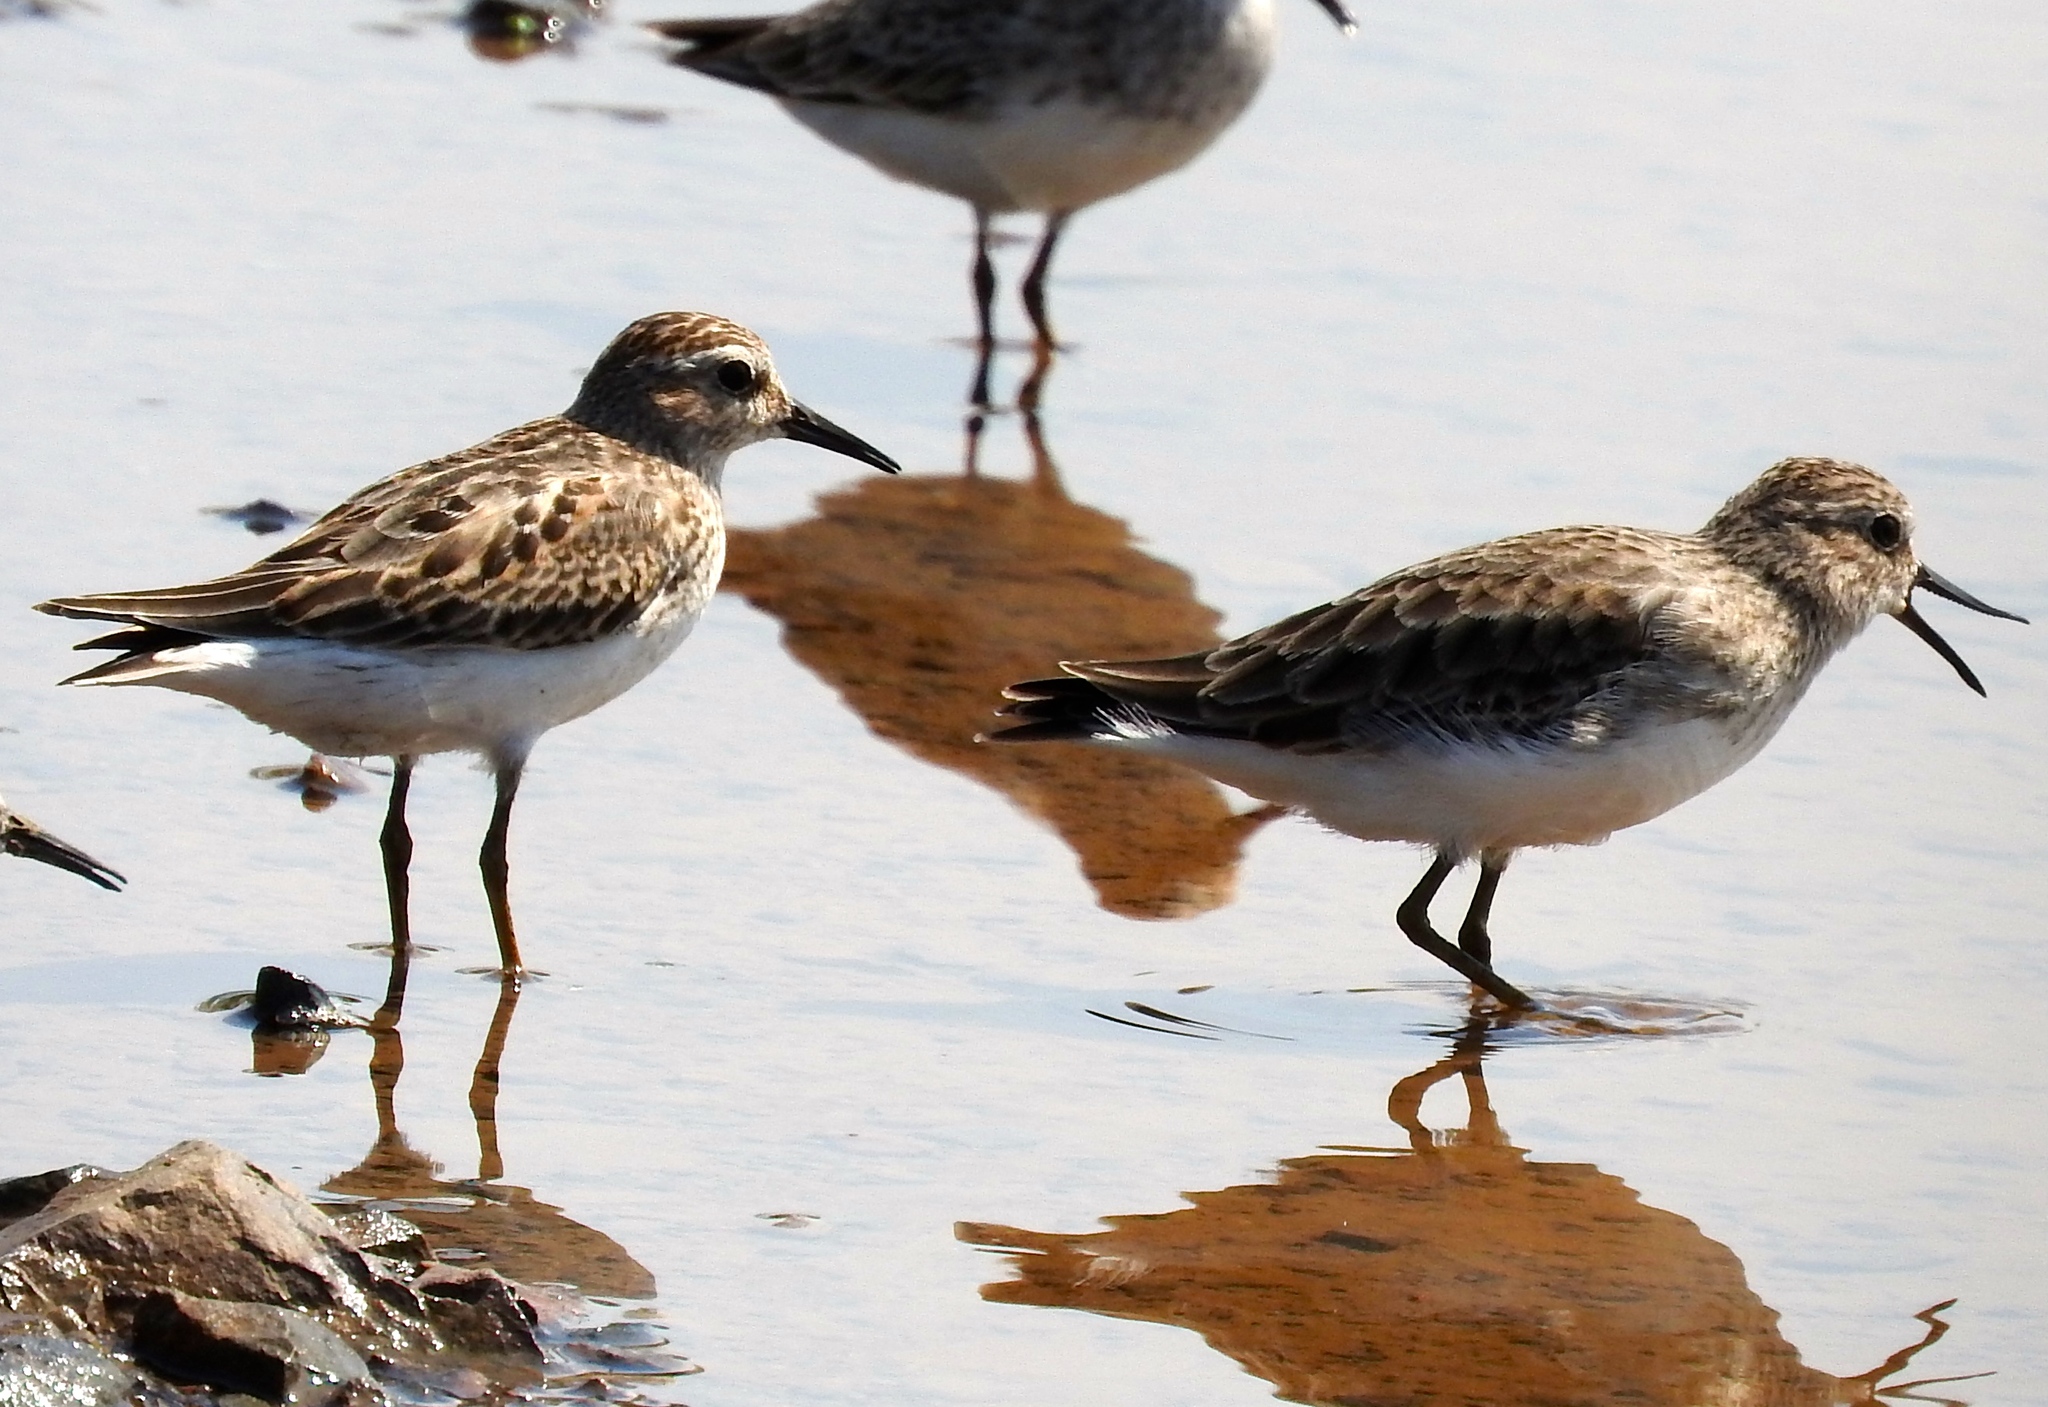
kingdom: Animalia
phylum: Chordata
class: Aves
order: Charadriiformes
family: Scolopacidae
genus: Calidris
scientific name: Calidris minutilla
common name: Least sandpiper
